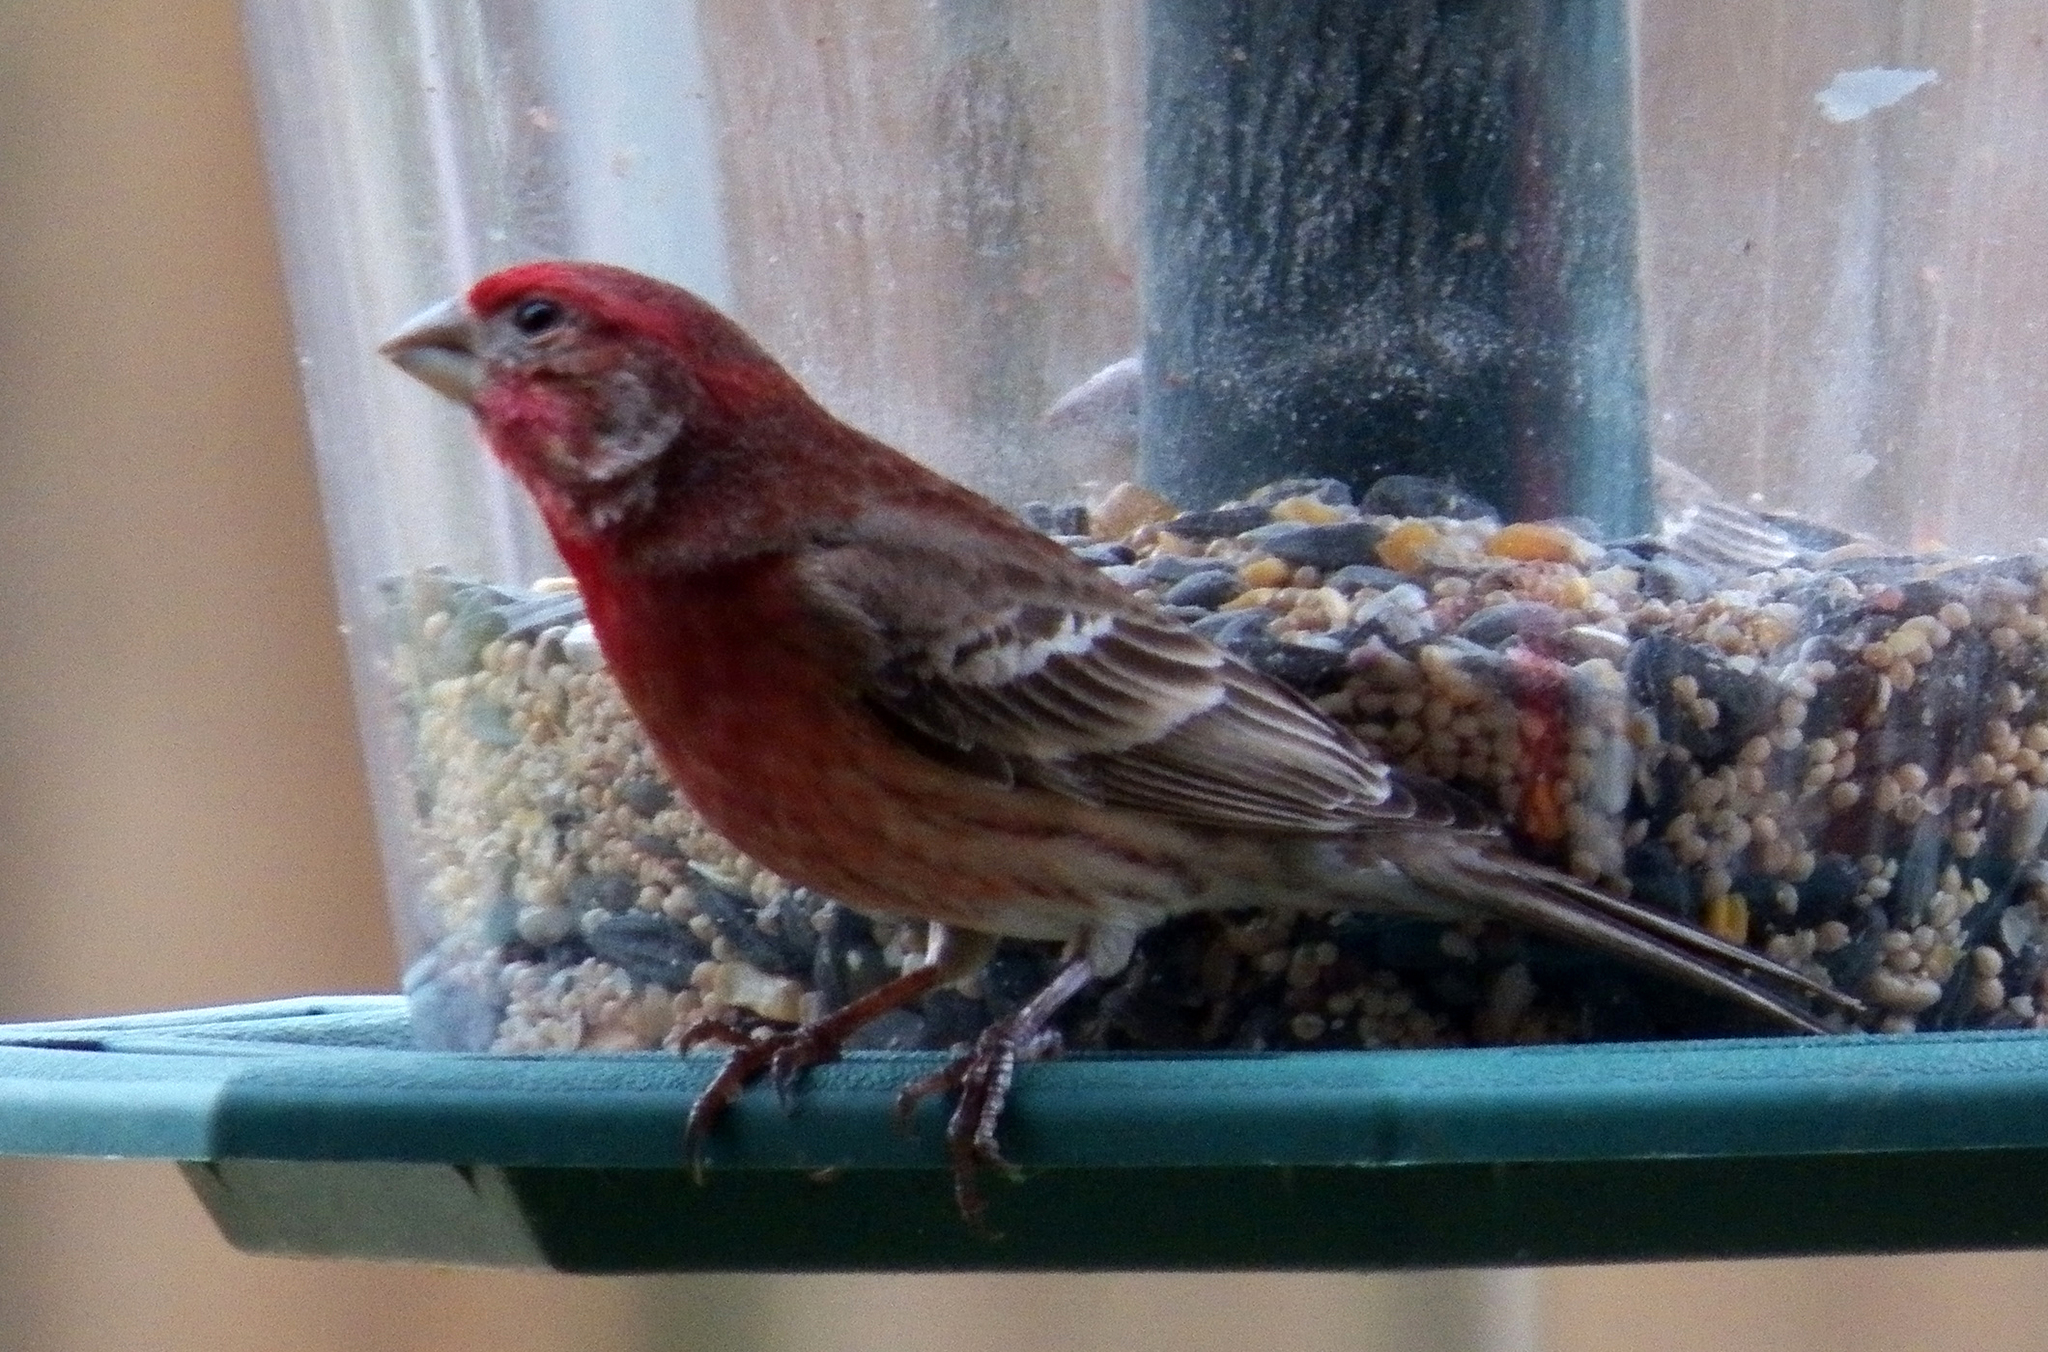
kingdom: Animalia
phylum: Chordata
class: Aves
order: Passeriformes
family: Fringillidae
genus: Haemorhous
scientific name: Haemorhous mexicanus
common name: House finch
